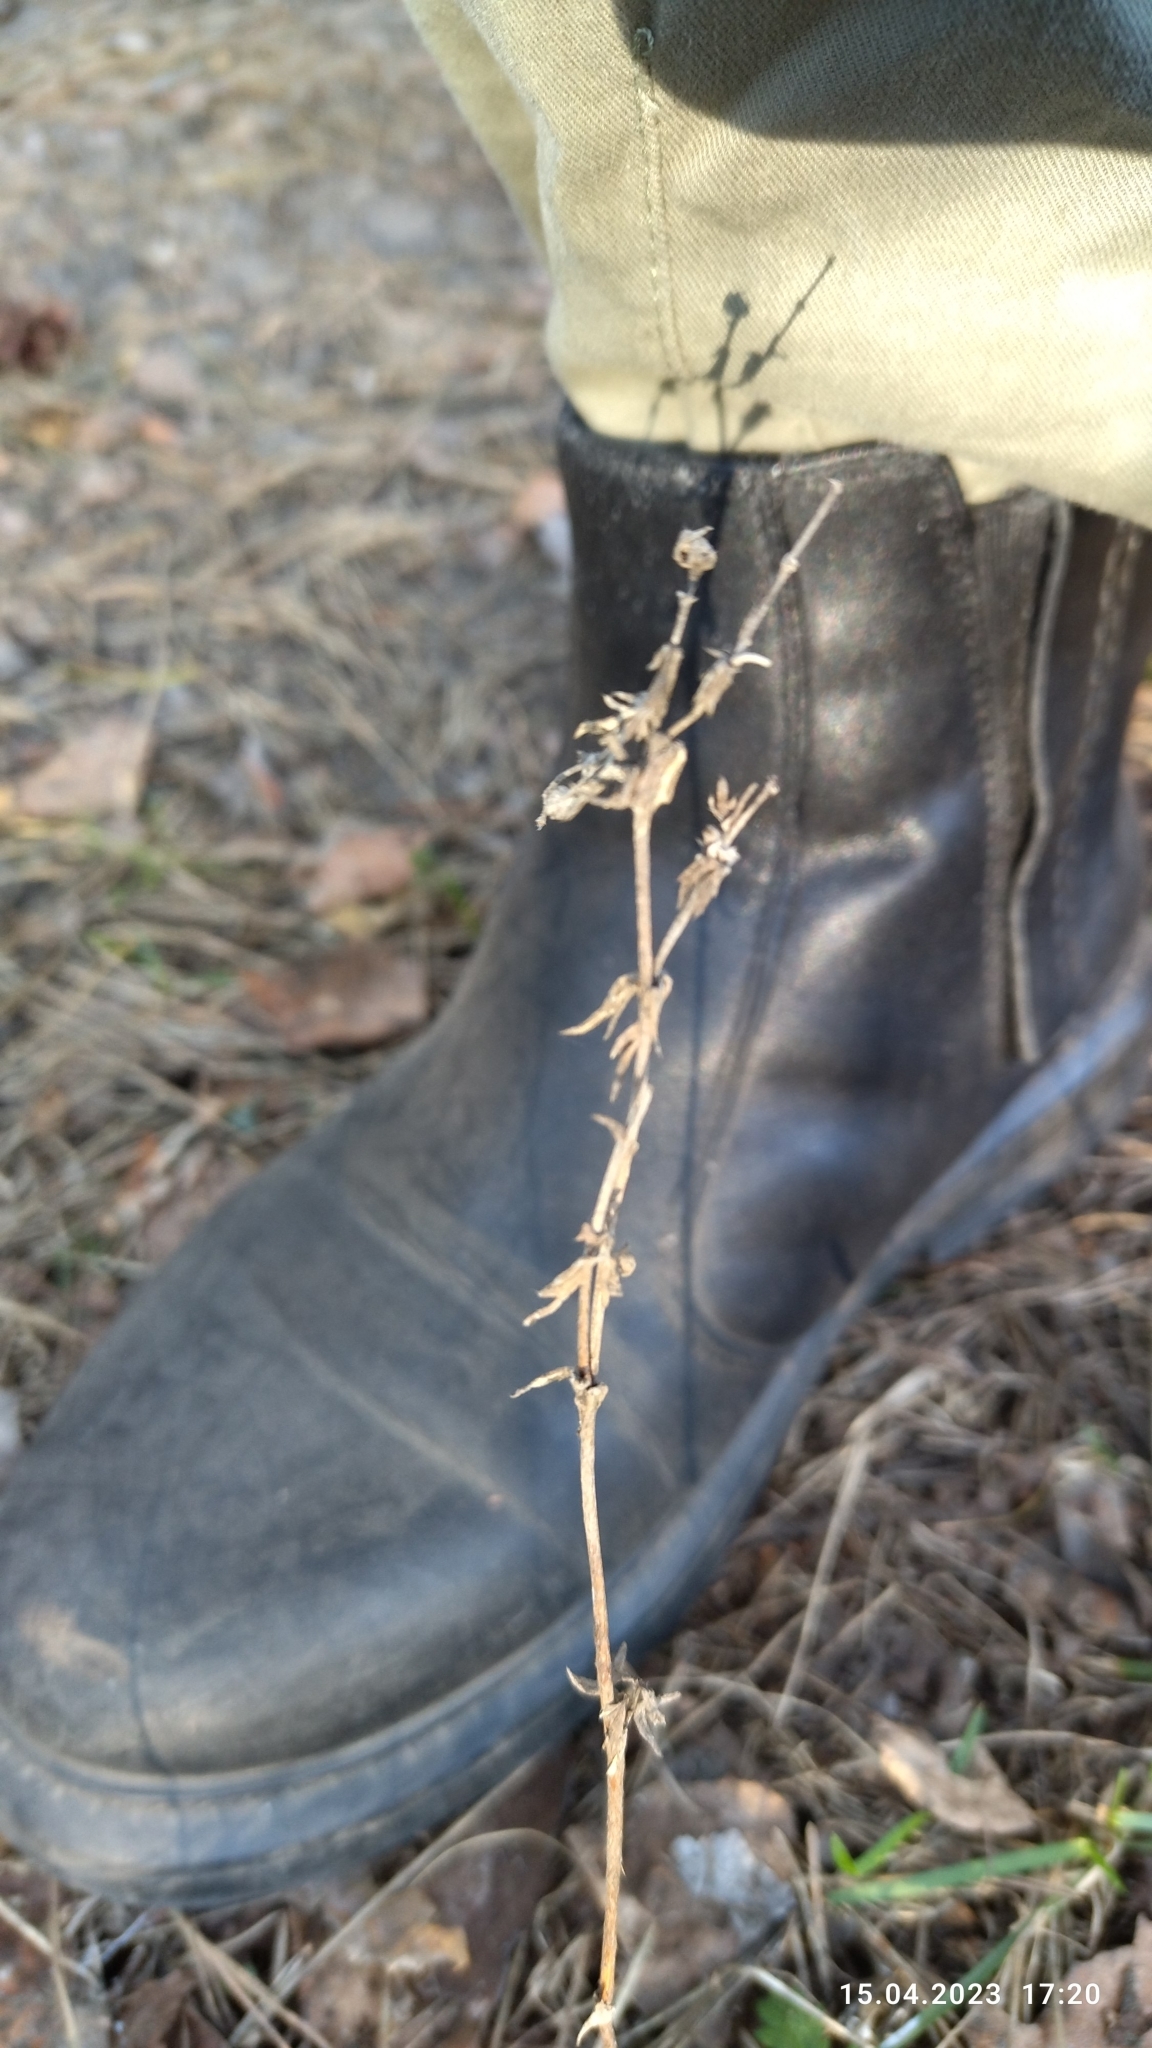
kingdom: Plantae
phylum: Tracheophyta
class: Magnoliopsida
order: Rosales
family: Rosaceae
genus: Potentilla
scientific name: Potentilla argentea
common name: Hoary cinquefoil
